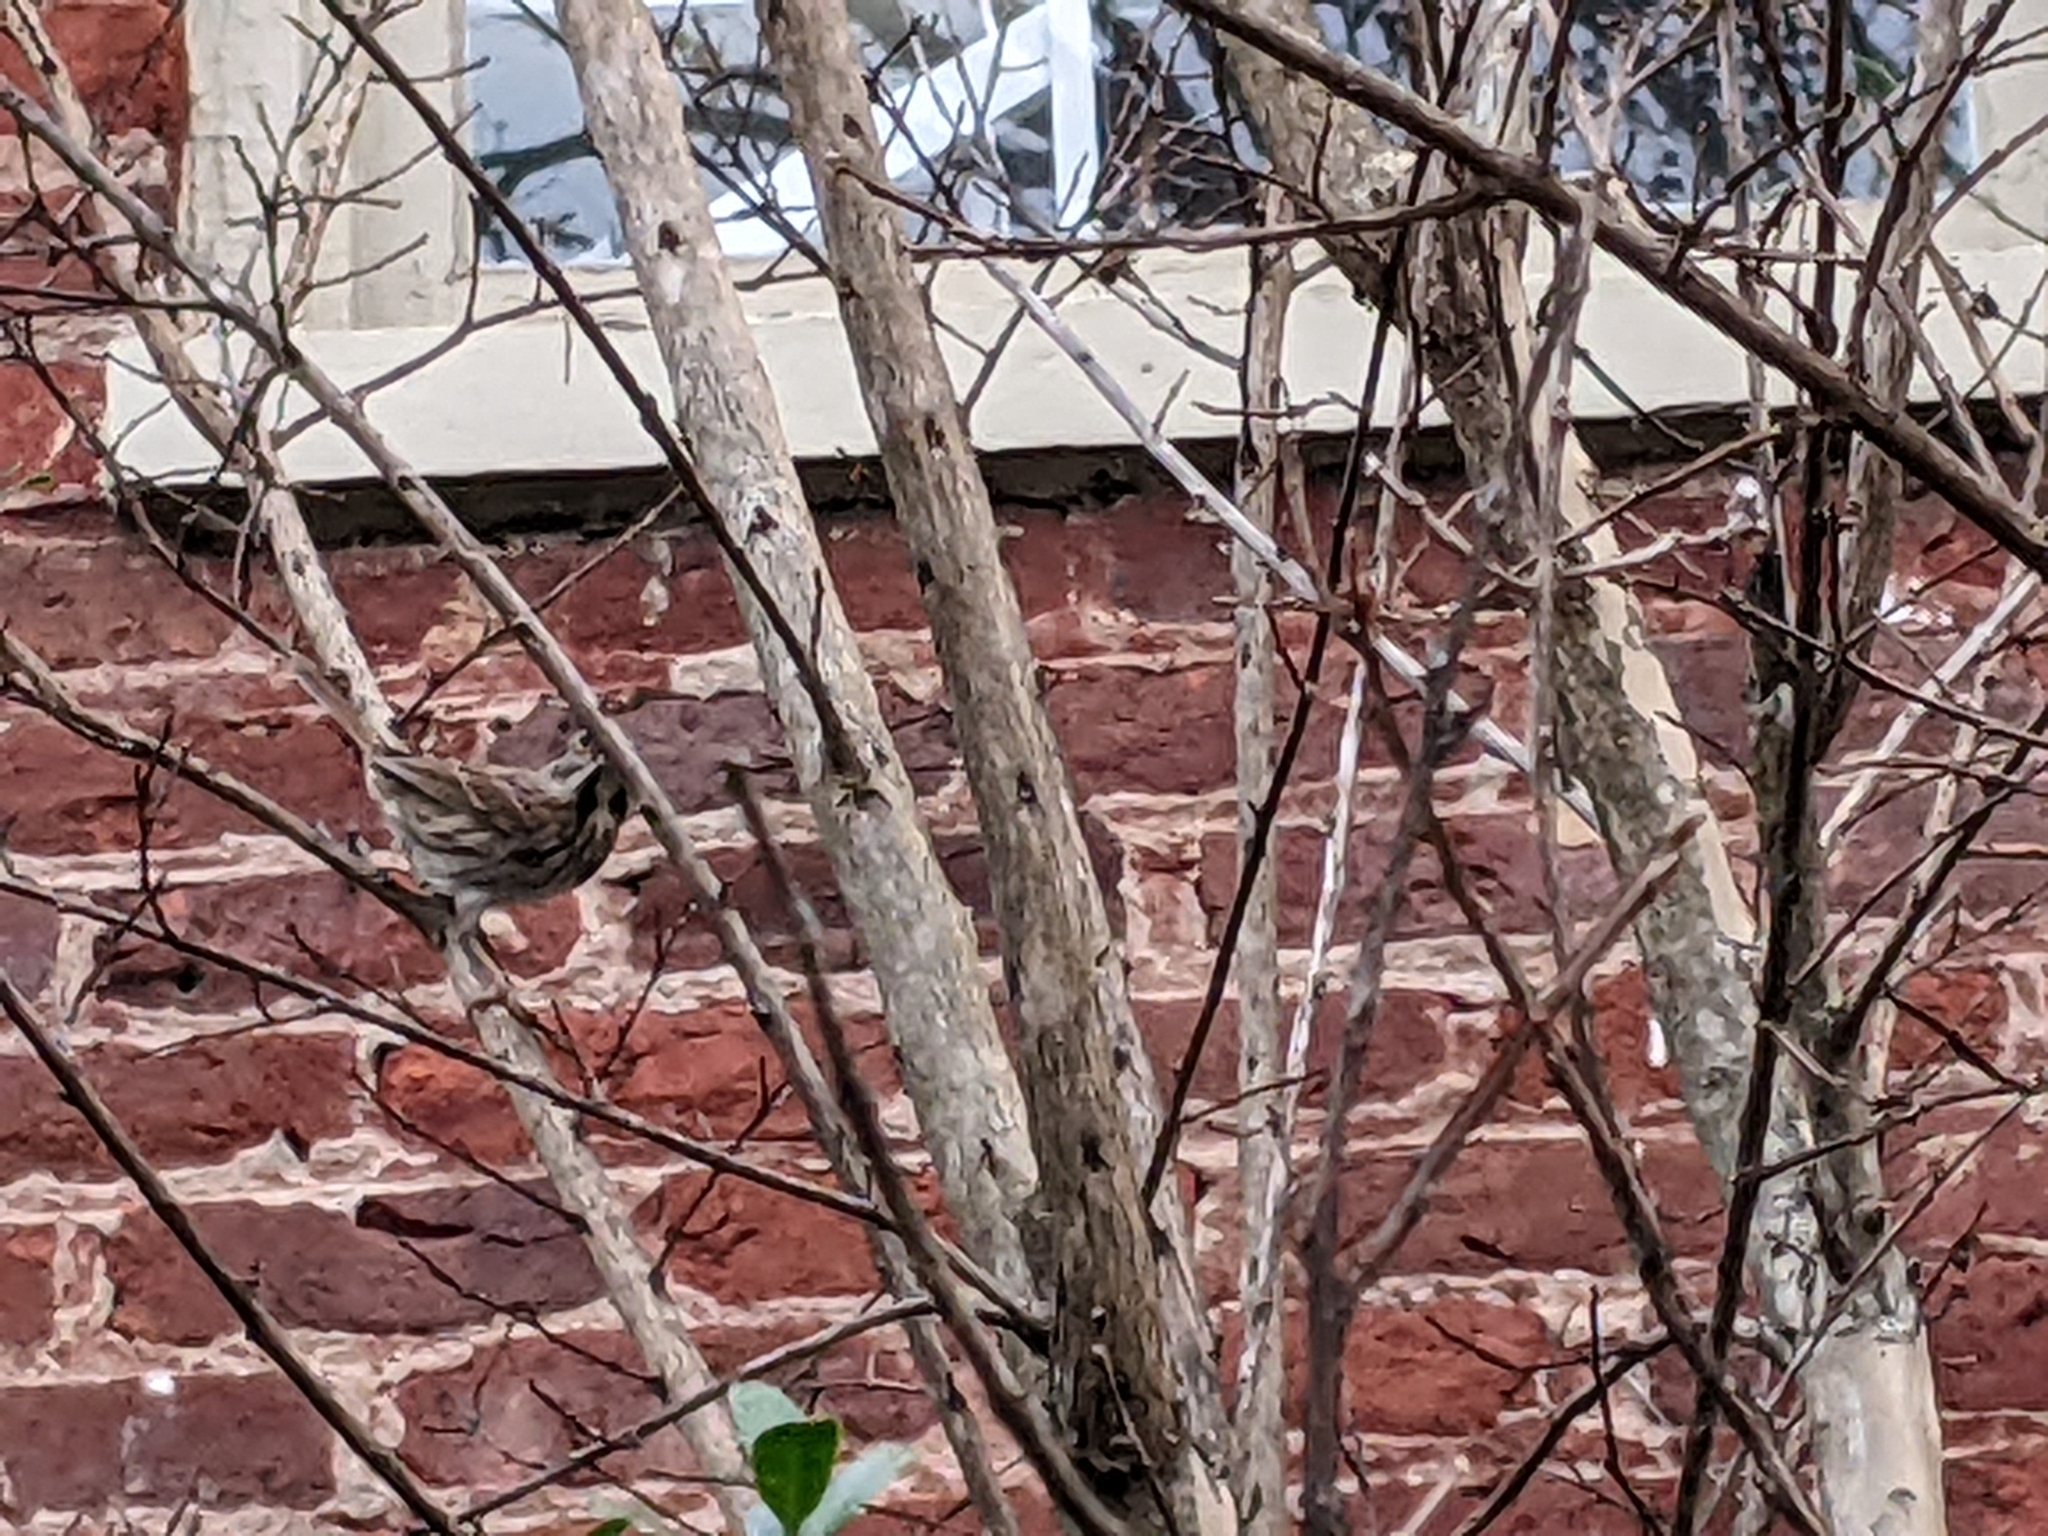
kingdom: Animalia
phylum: Chordata
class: Aves
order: Passeriformes
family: Passerellidae
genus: Melospiza
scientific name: Melospiza melodia
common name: Song sparrow
